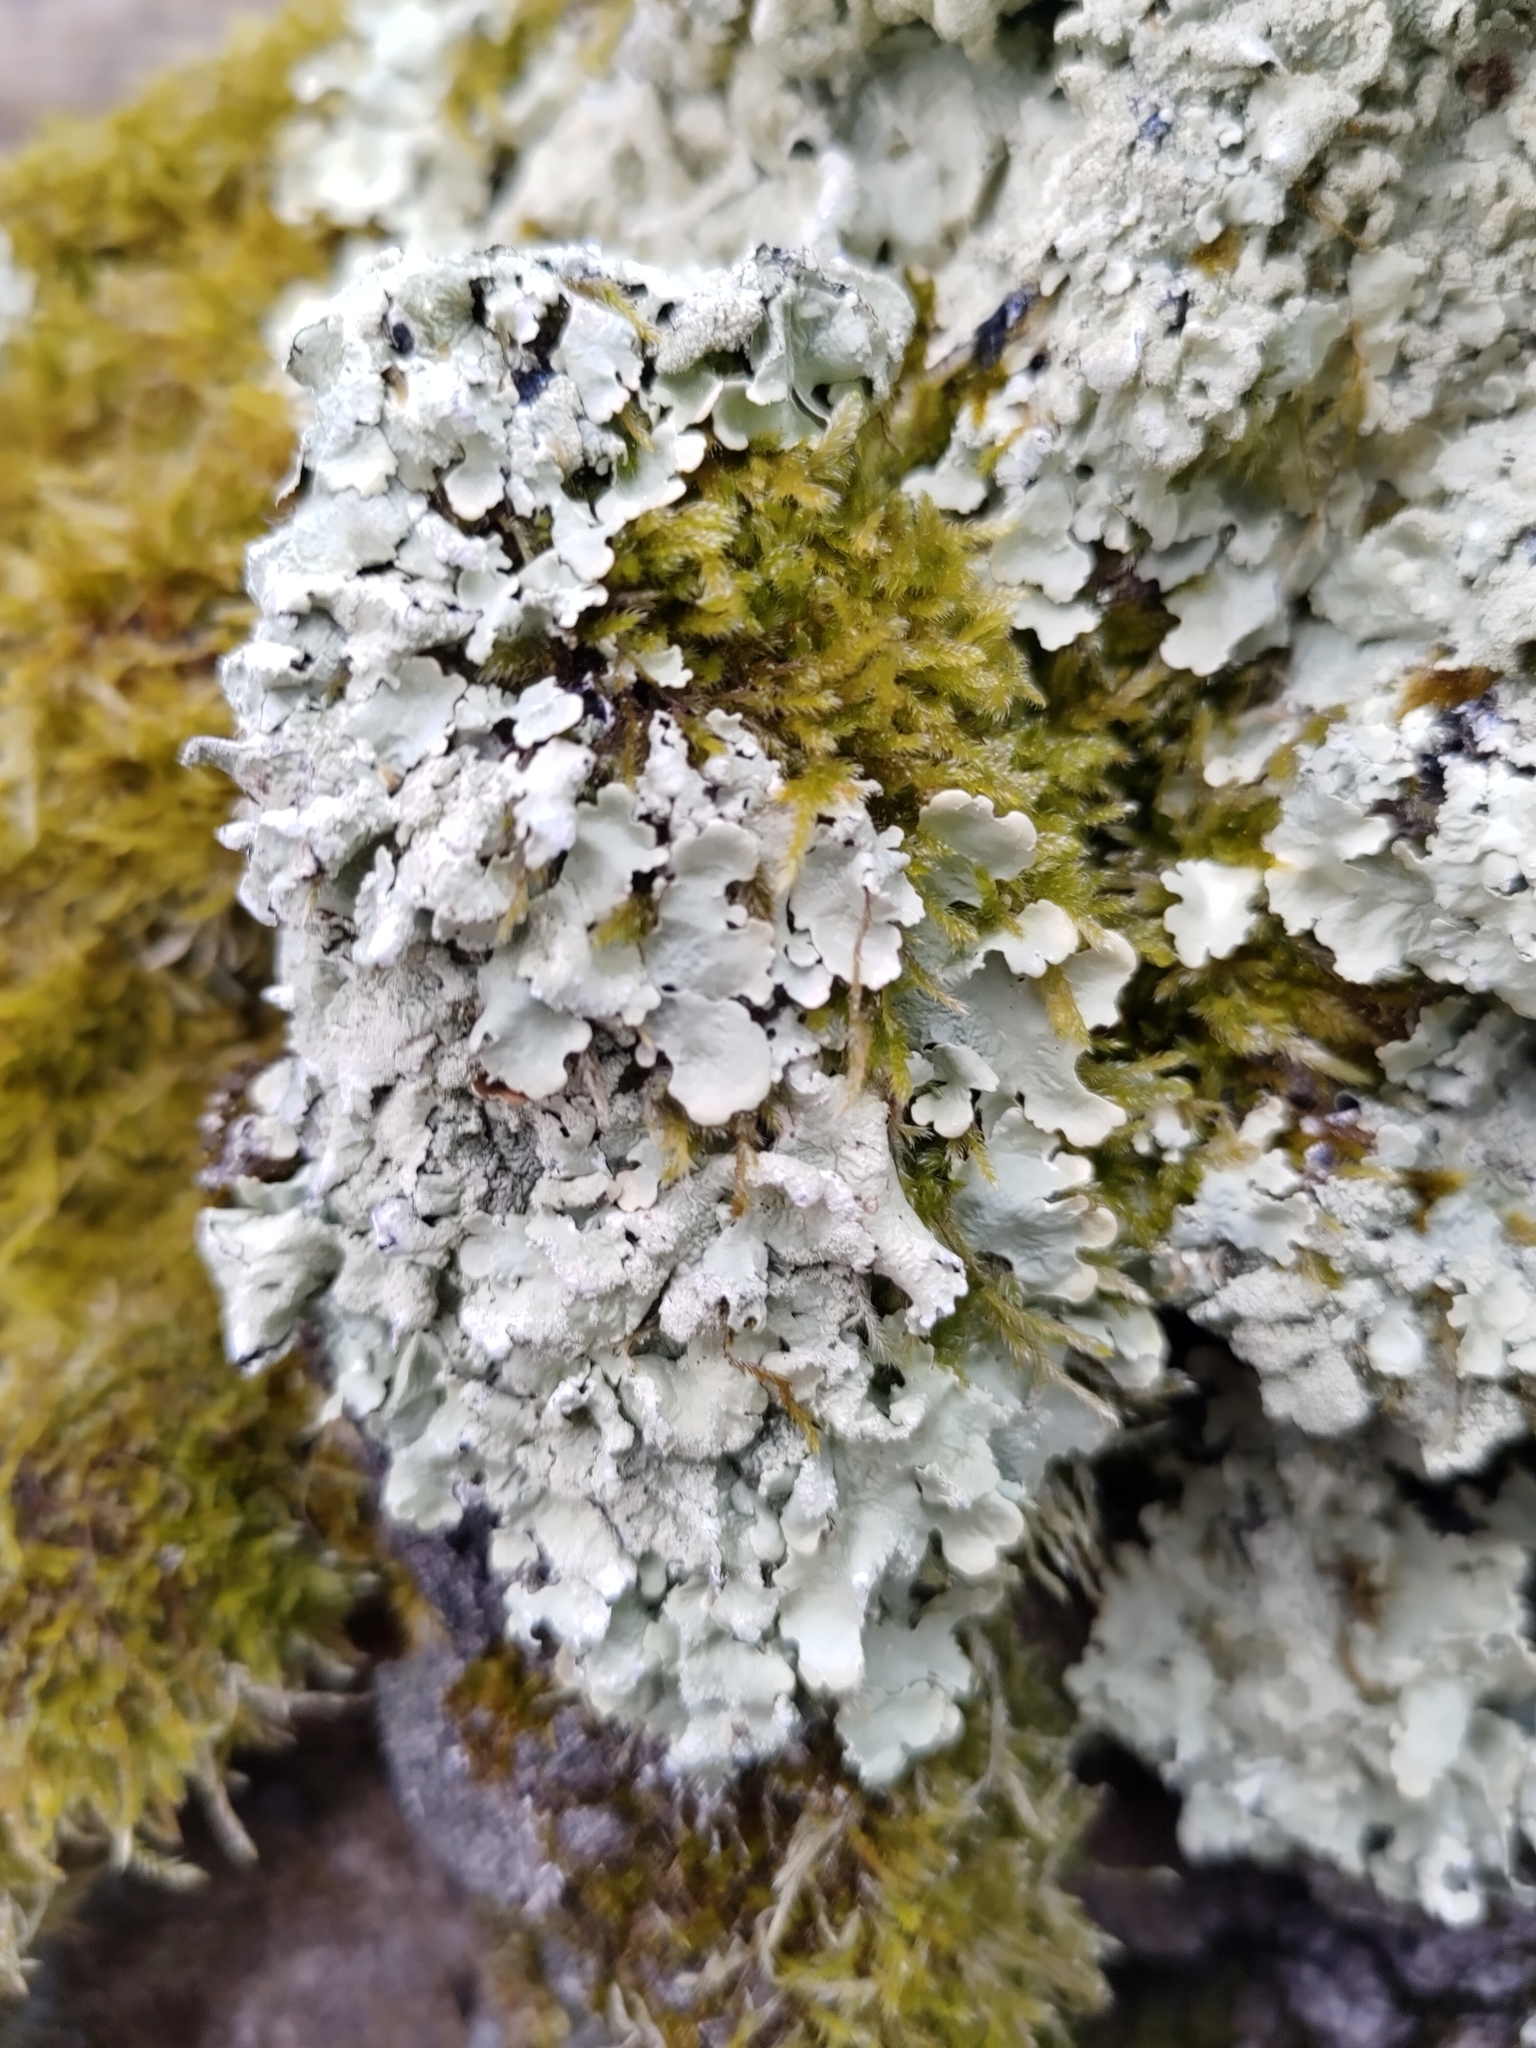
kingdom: Fungi
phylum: Ascomycota
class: Lecanoromycetes
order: Lecanorales
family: Parmeliaceae
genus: Flavoparmelia
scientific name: Flavoparmelia caperata
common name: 40-mile per hour lichen
